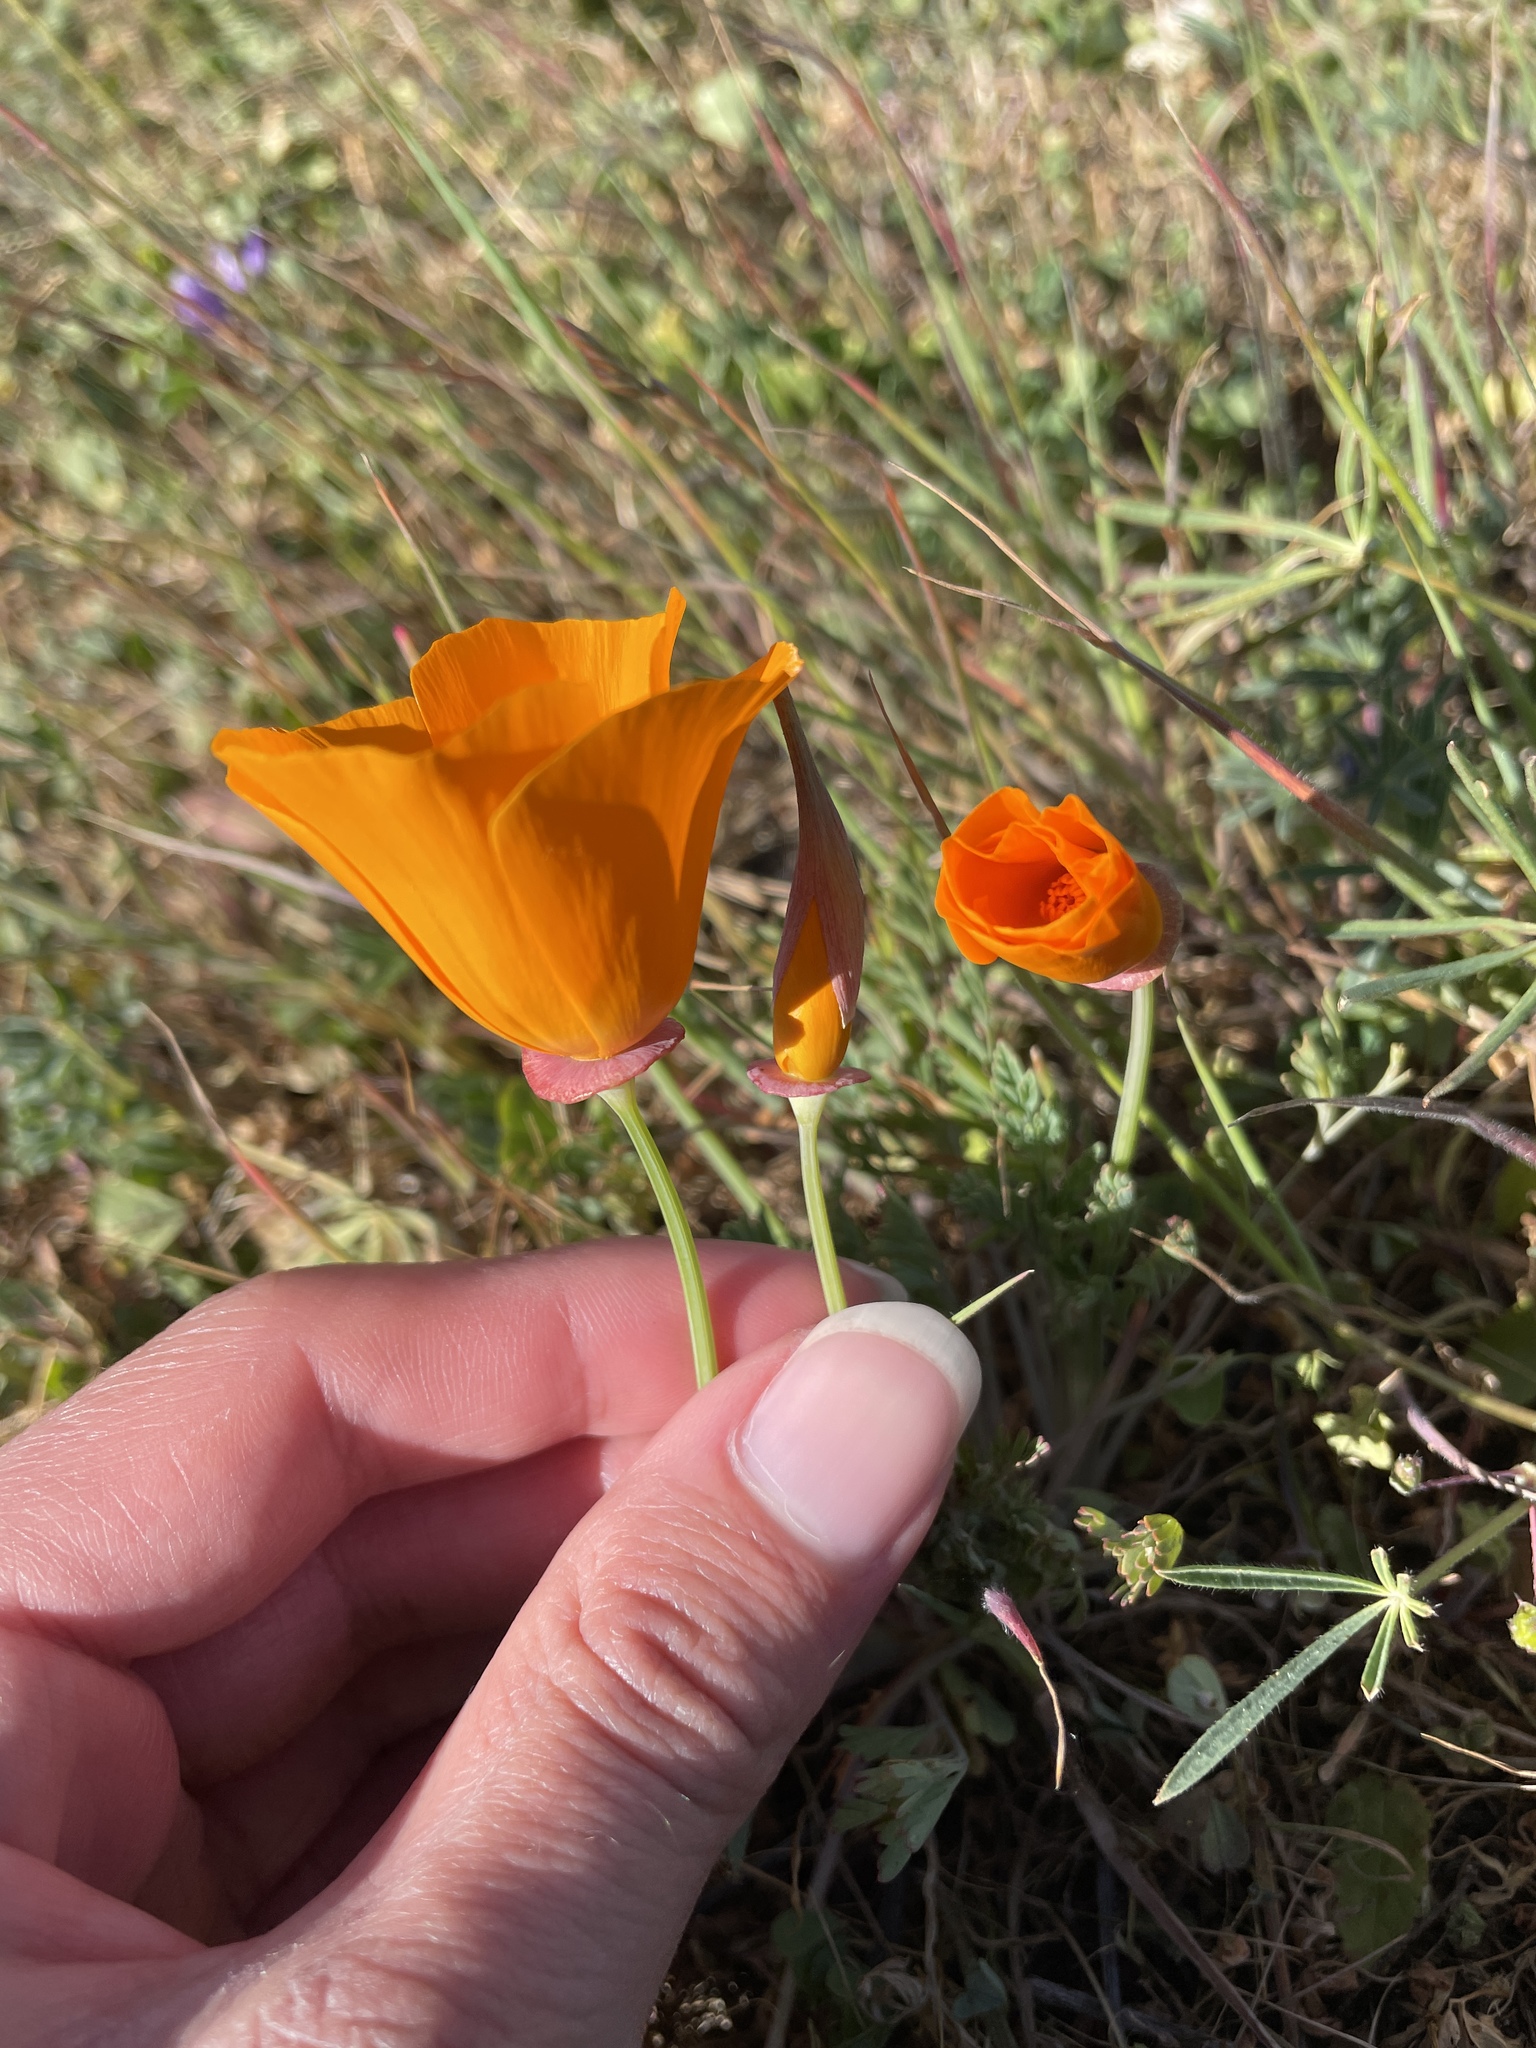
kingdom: Plantae
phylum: Tracheophyta
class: Magnoliopsida
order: Ranunculales
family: Papaveraceae
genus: Eschscholzia
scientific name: Eschscholzia californica
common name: California poppy
